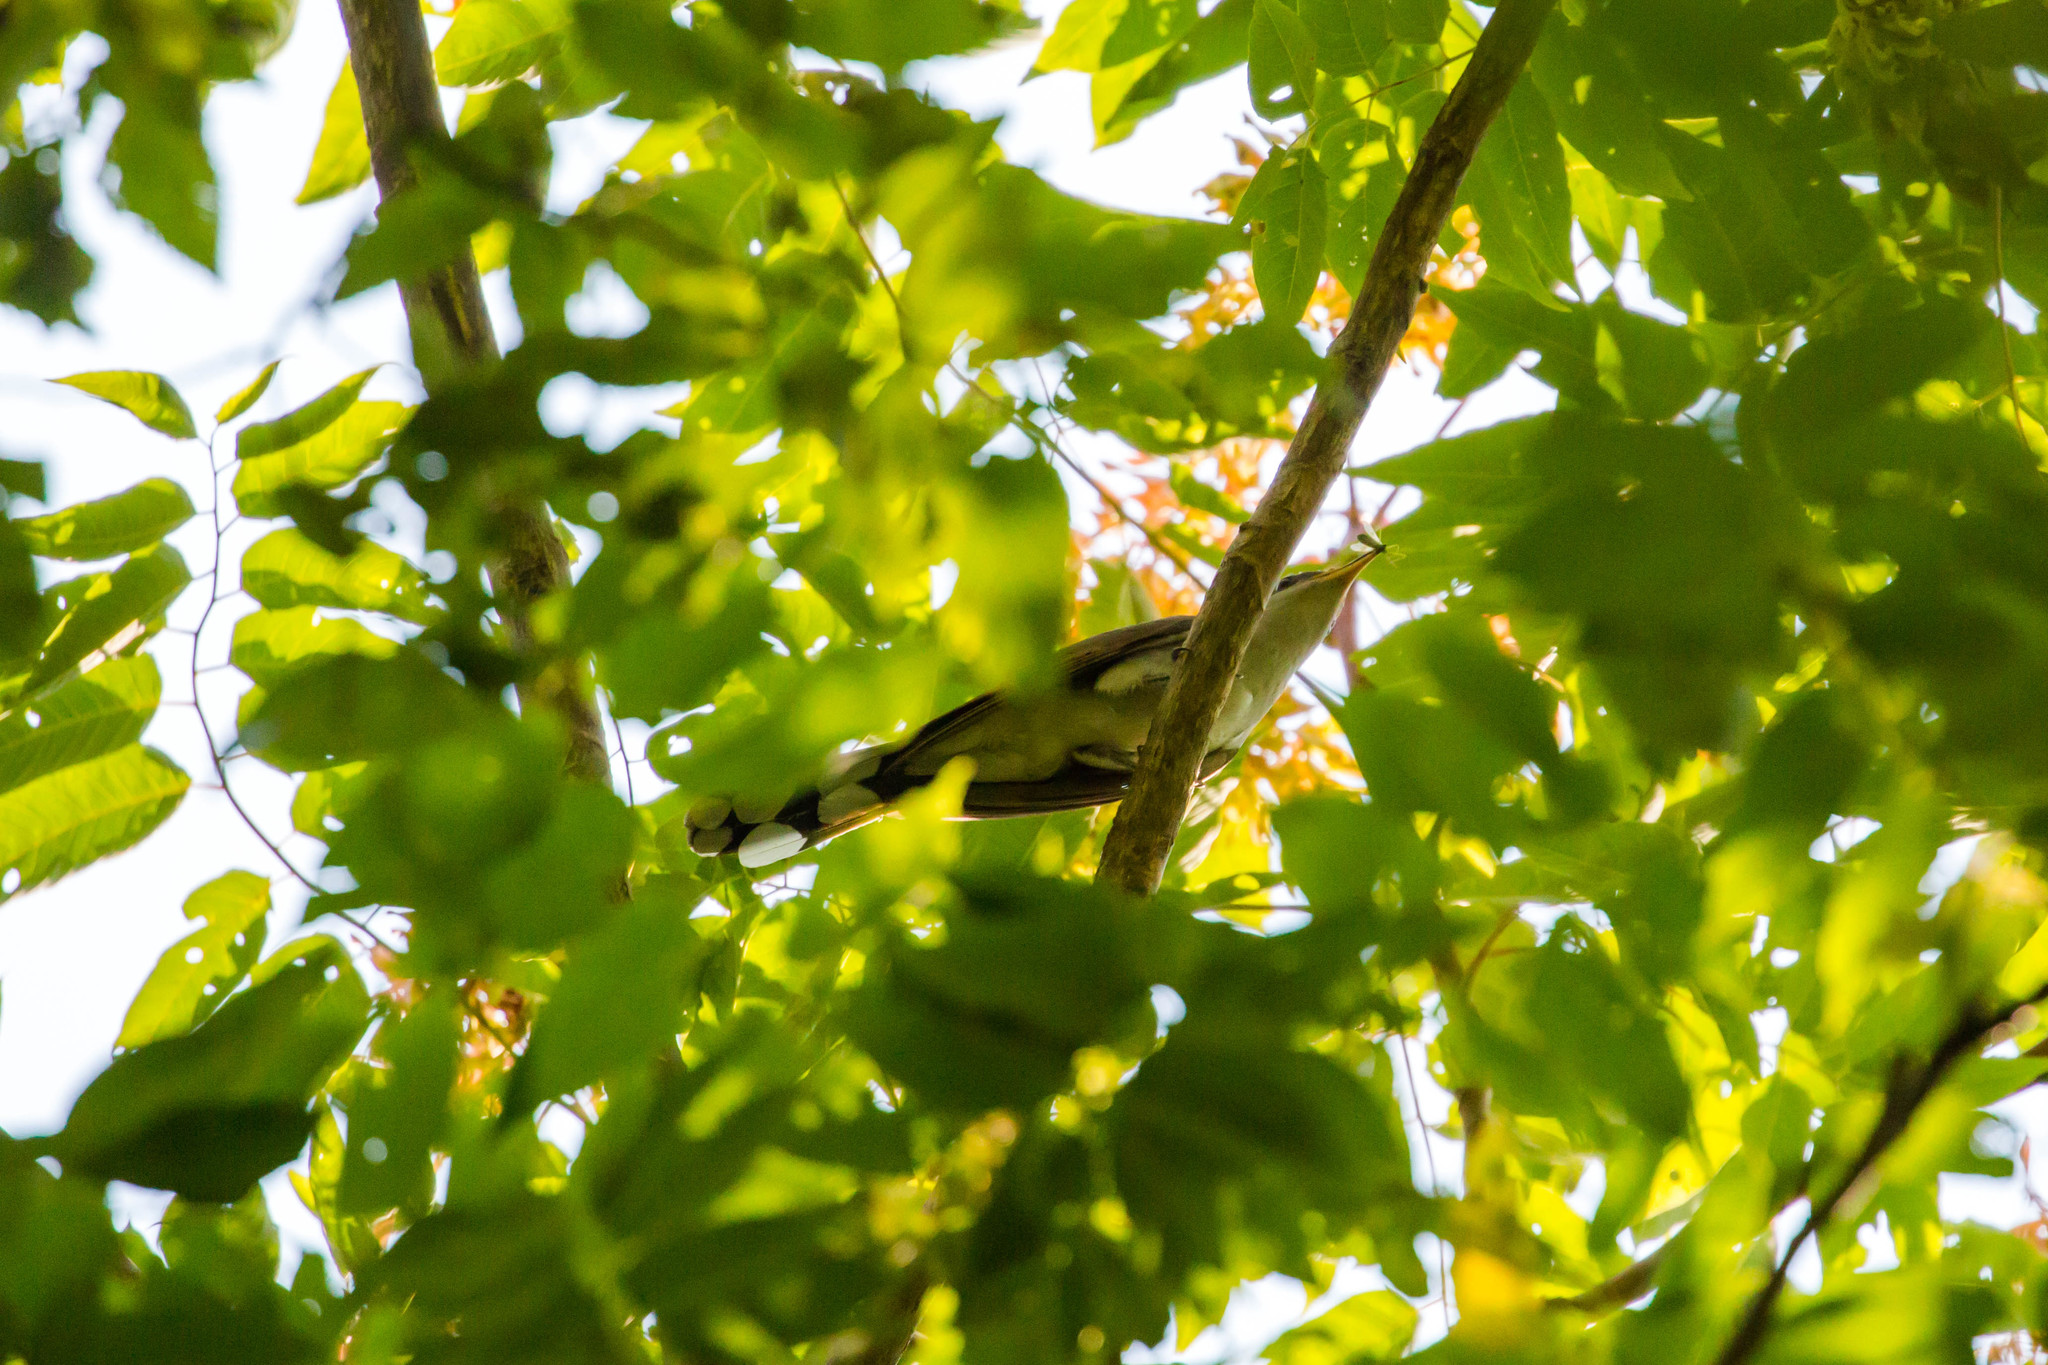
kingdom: Animalia
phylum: Chordata
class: Aves
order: Cuculiformes
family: Cuculidae
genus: Coccyzus
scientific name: Coccyzus americanus
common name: Yellow-billed cuckoo
